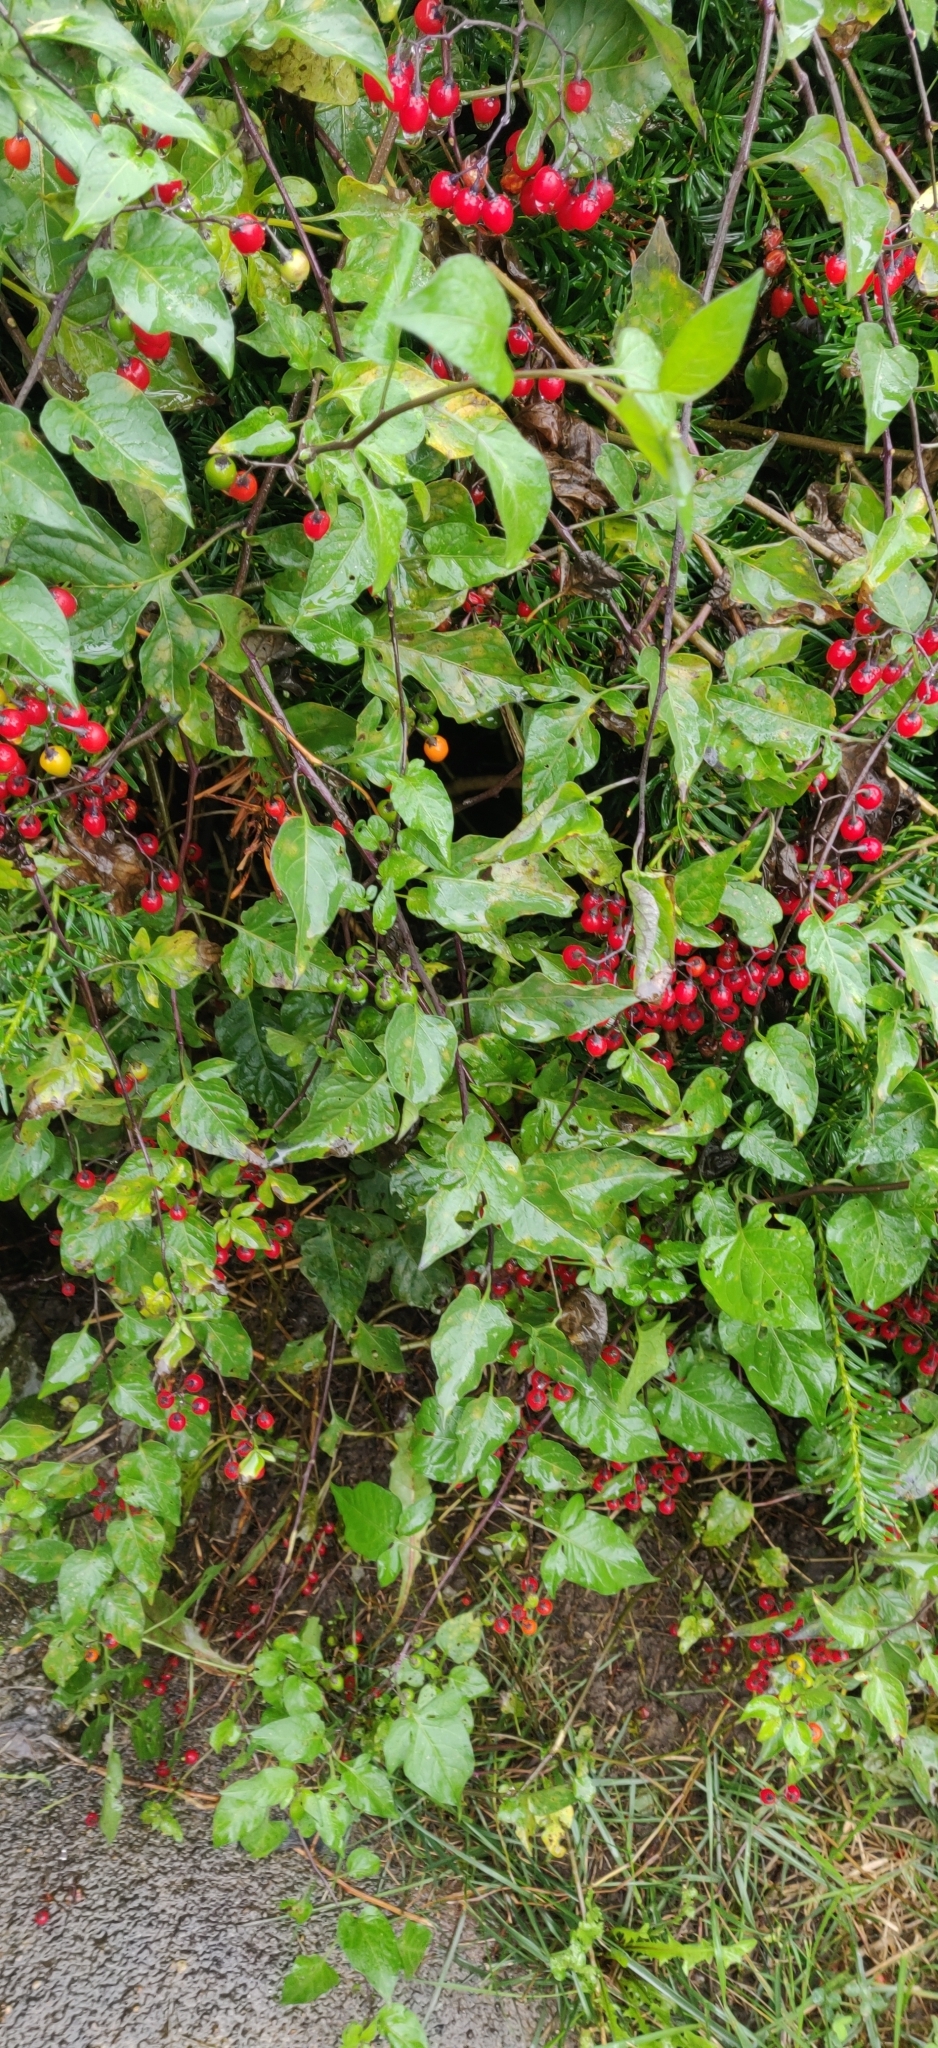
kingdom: Plantae
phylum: Tracheophyta
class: Magnoliopsida
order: Solanales
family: Solanaceae
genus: Solanum
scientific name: Solanum dulcamara
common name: Climbing nightshade
